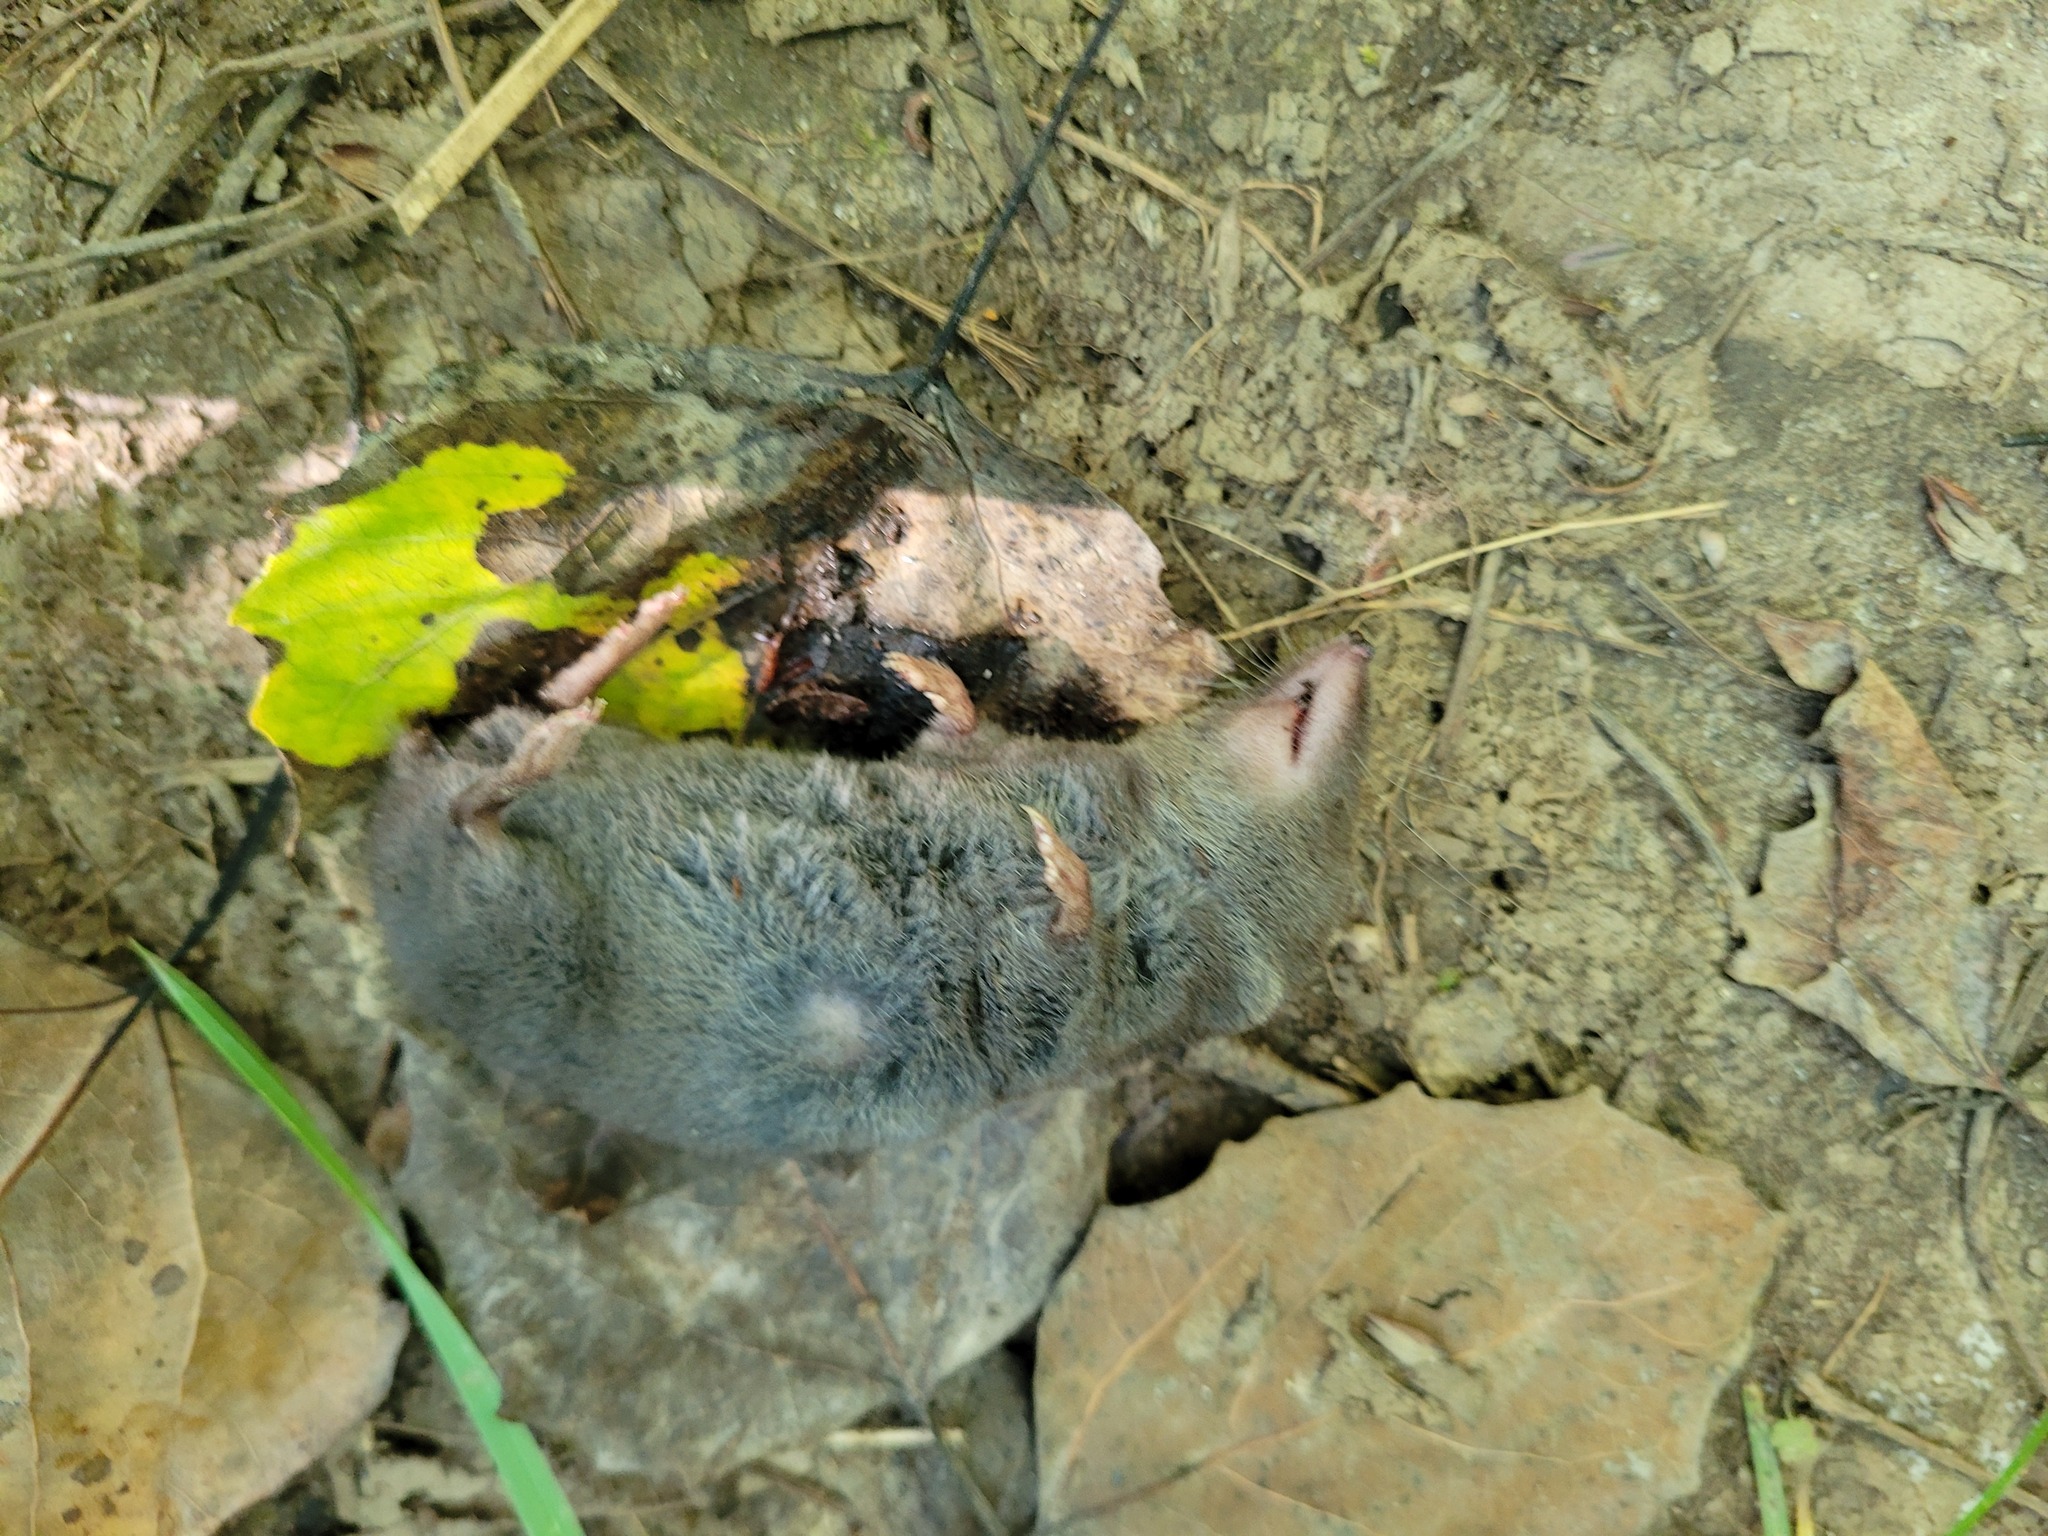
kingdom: Animalia
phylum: Chordata
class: Mammalia
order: Soricomorpha
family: Soricidae
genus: Blarina
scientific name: Blarina brevicauda
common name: Northern short-tailed shrew
